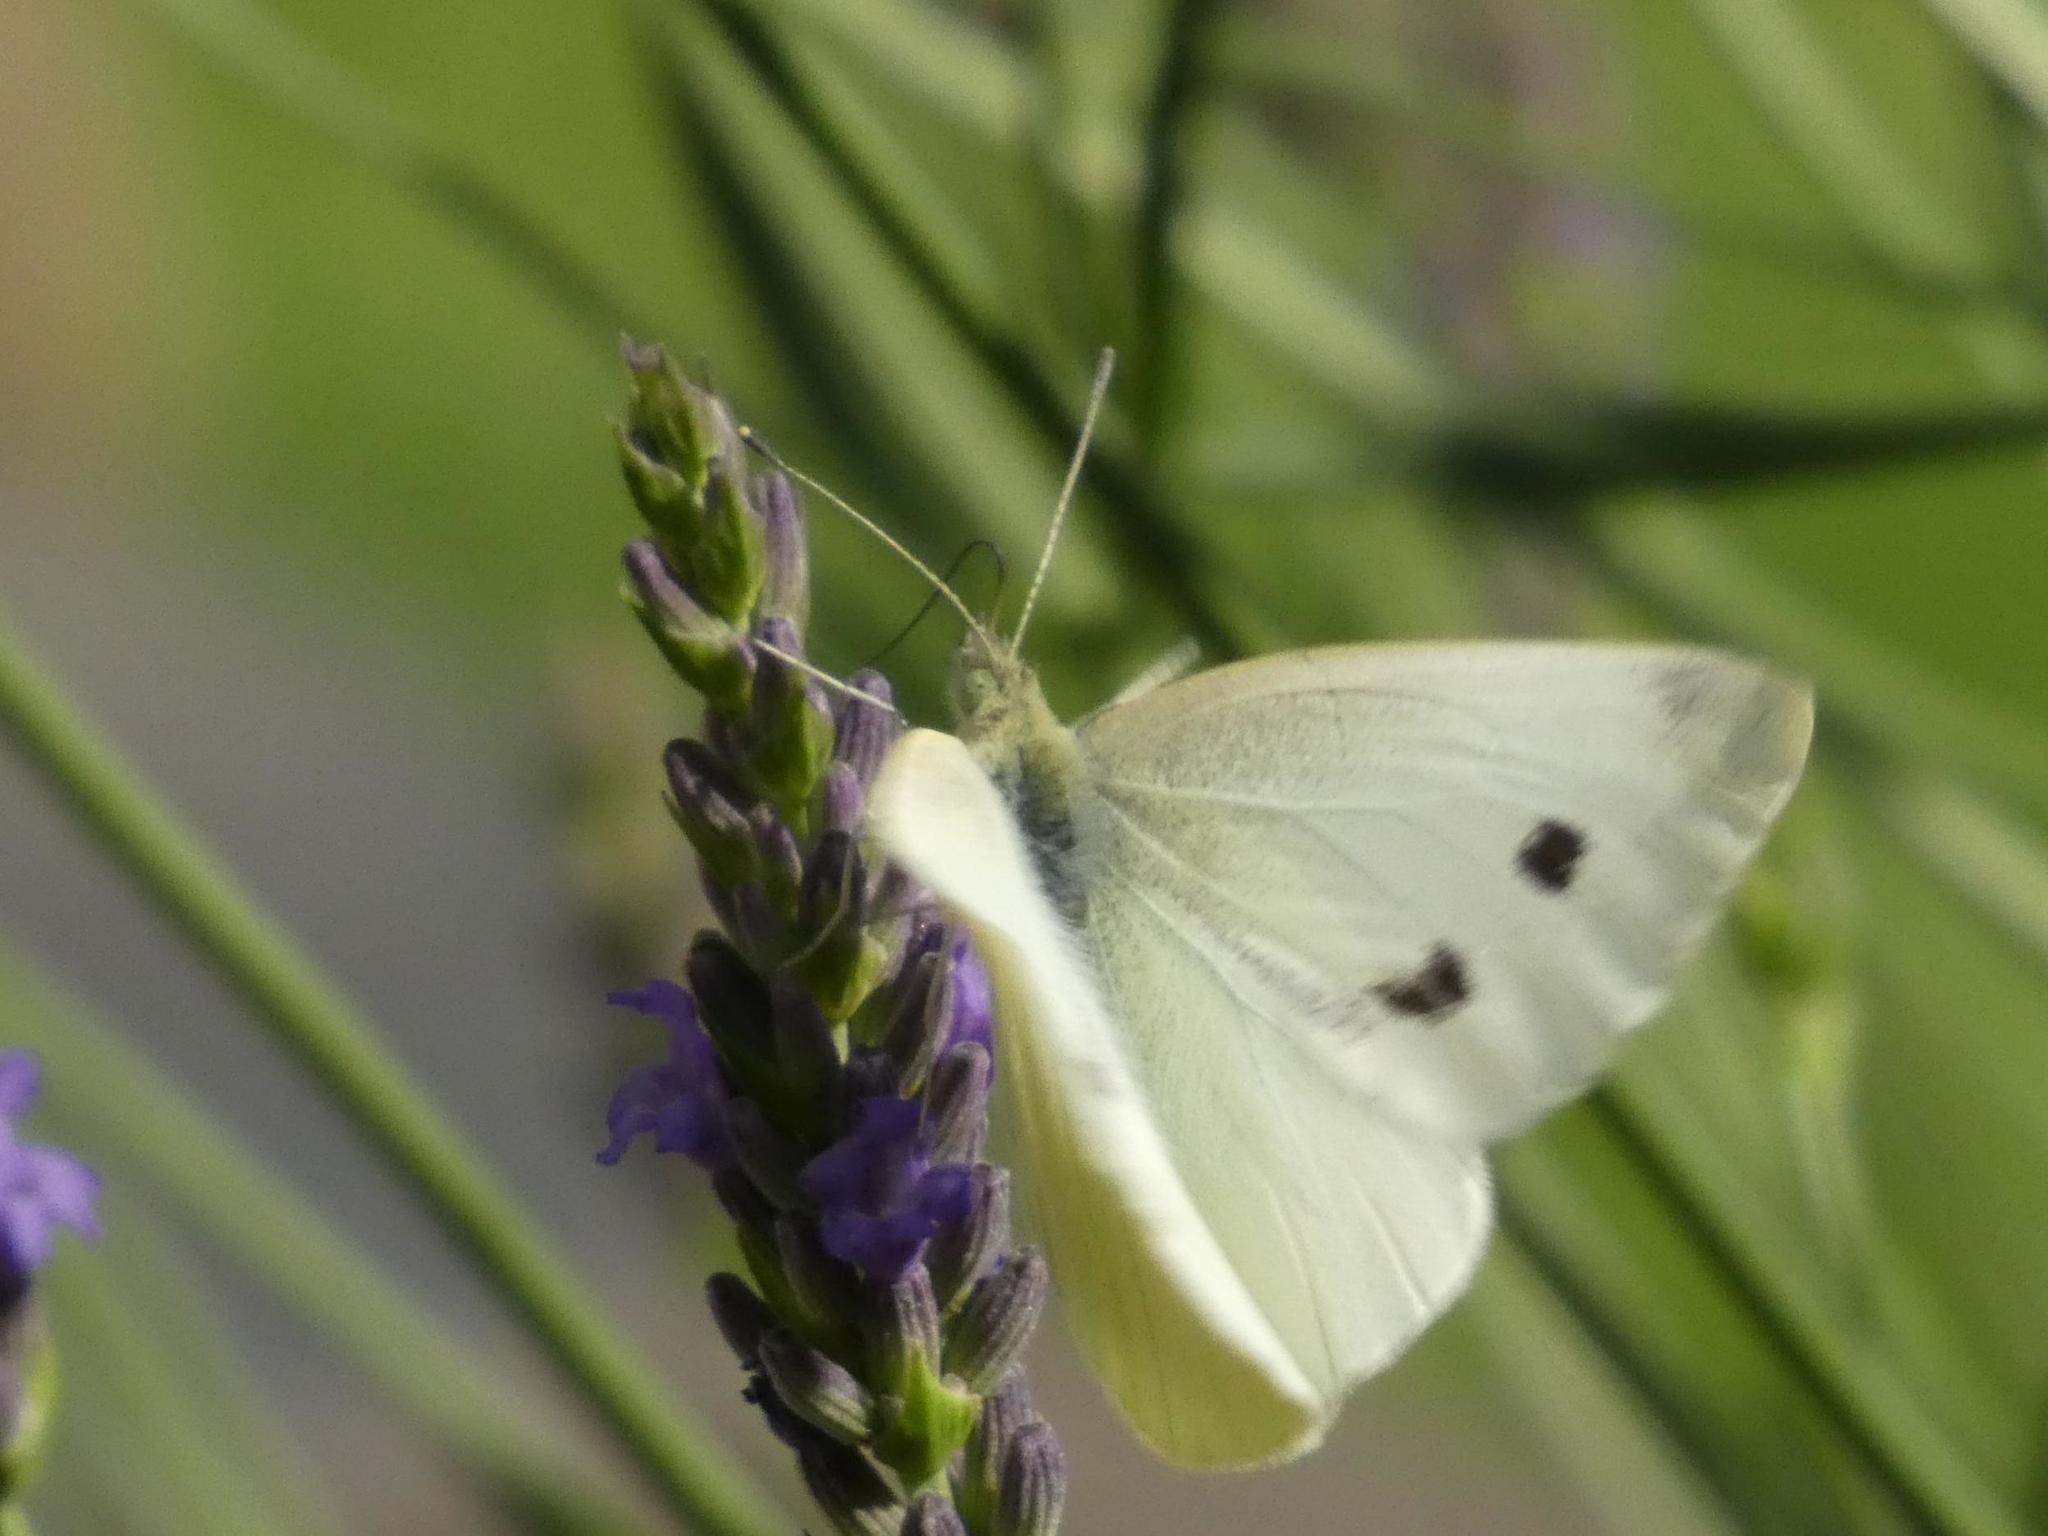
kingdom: Animalia
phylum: Arthropoda
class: Insecta
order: Lepidoptera
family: Pieridae
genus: Pieris
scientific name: Pieris rapae
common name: Small white
